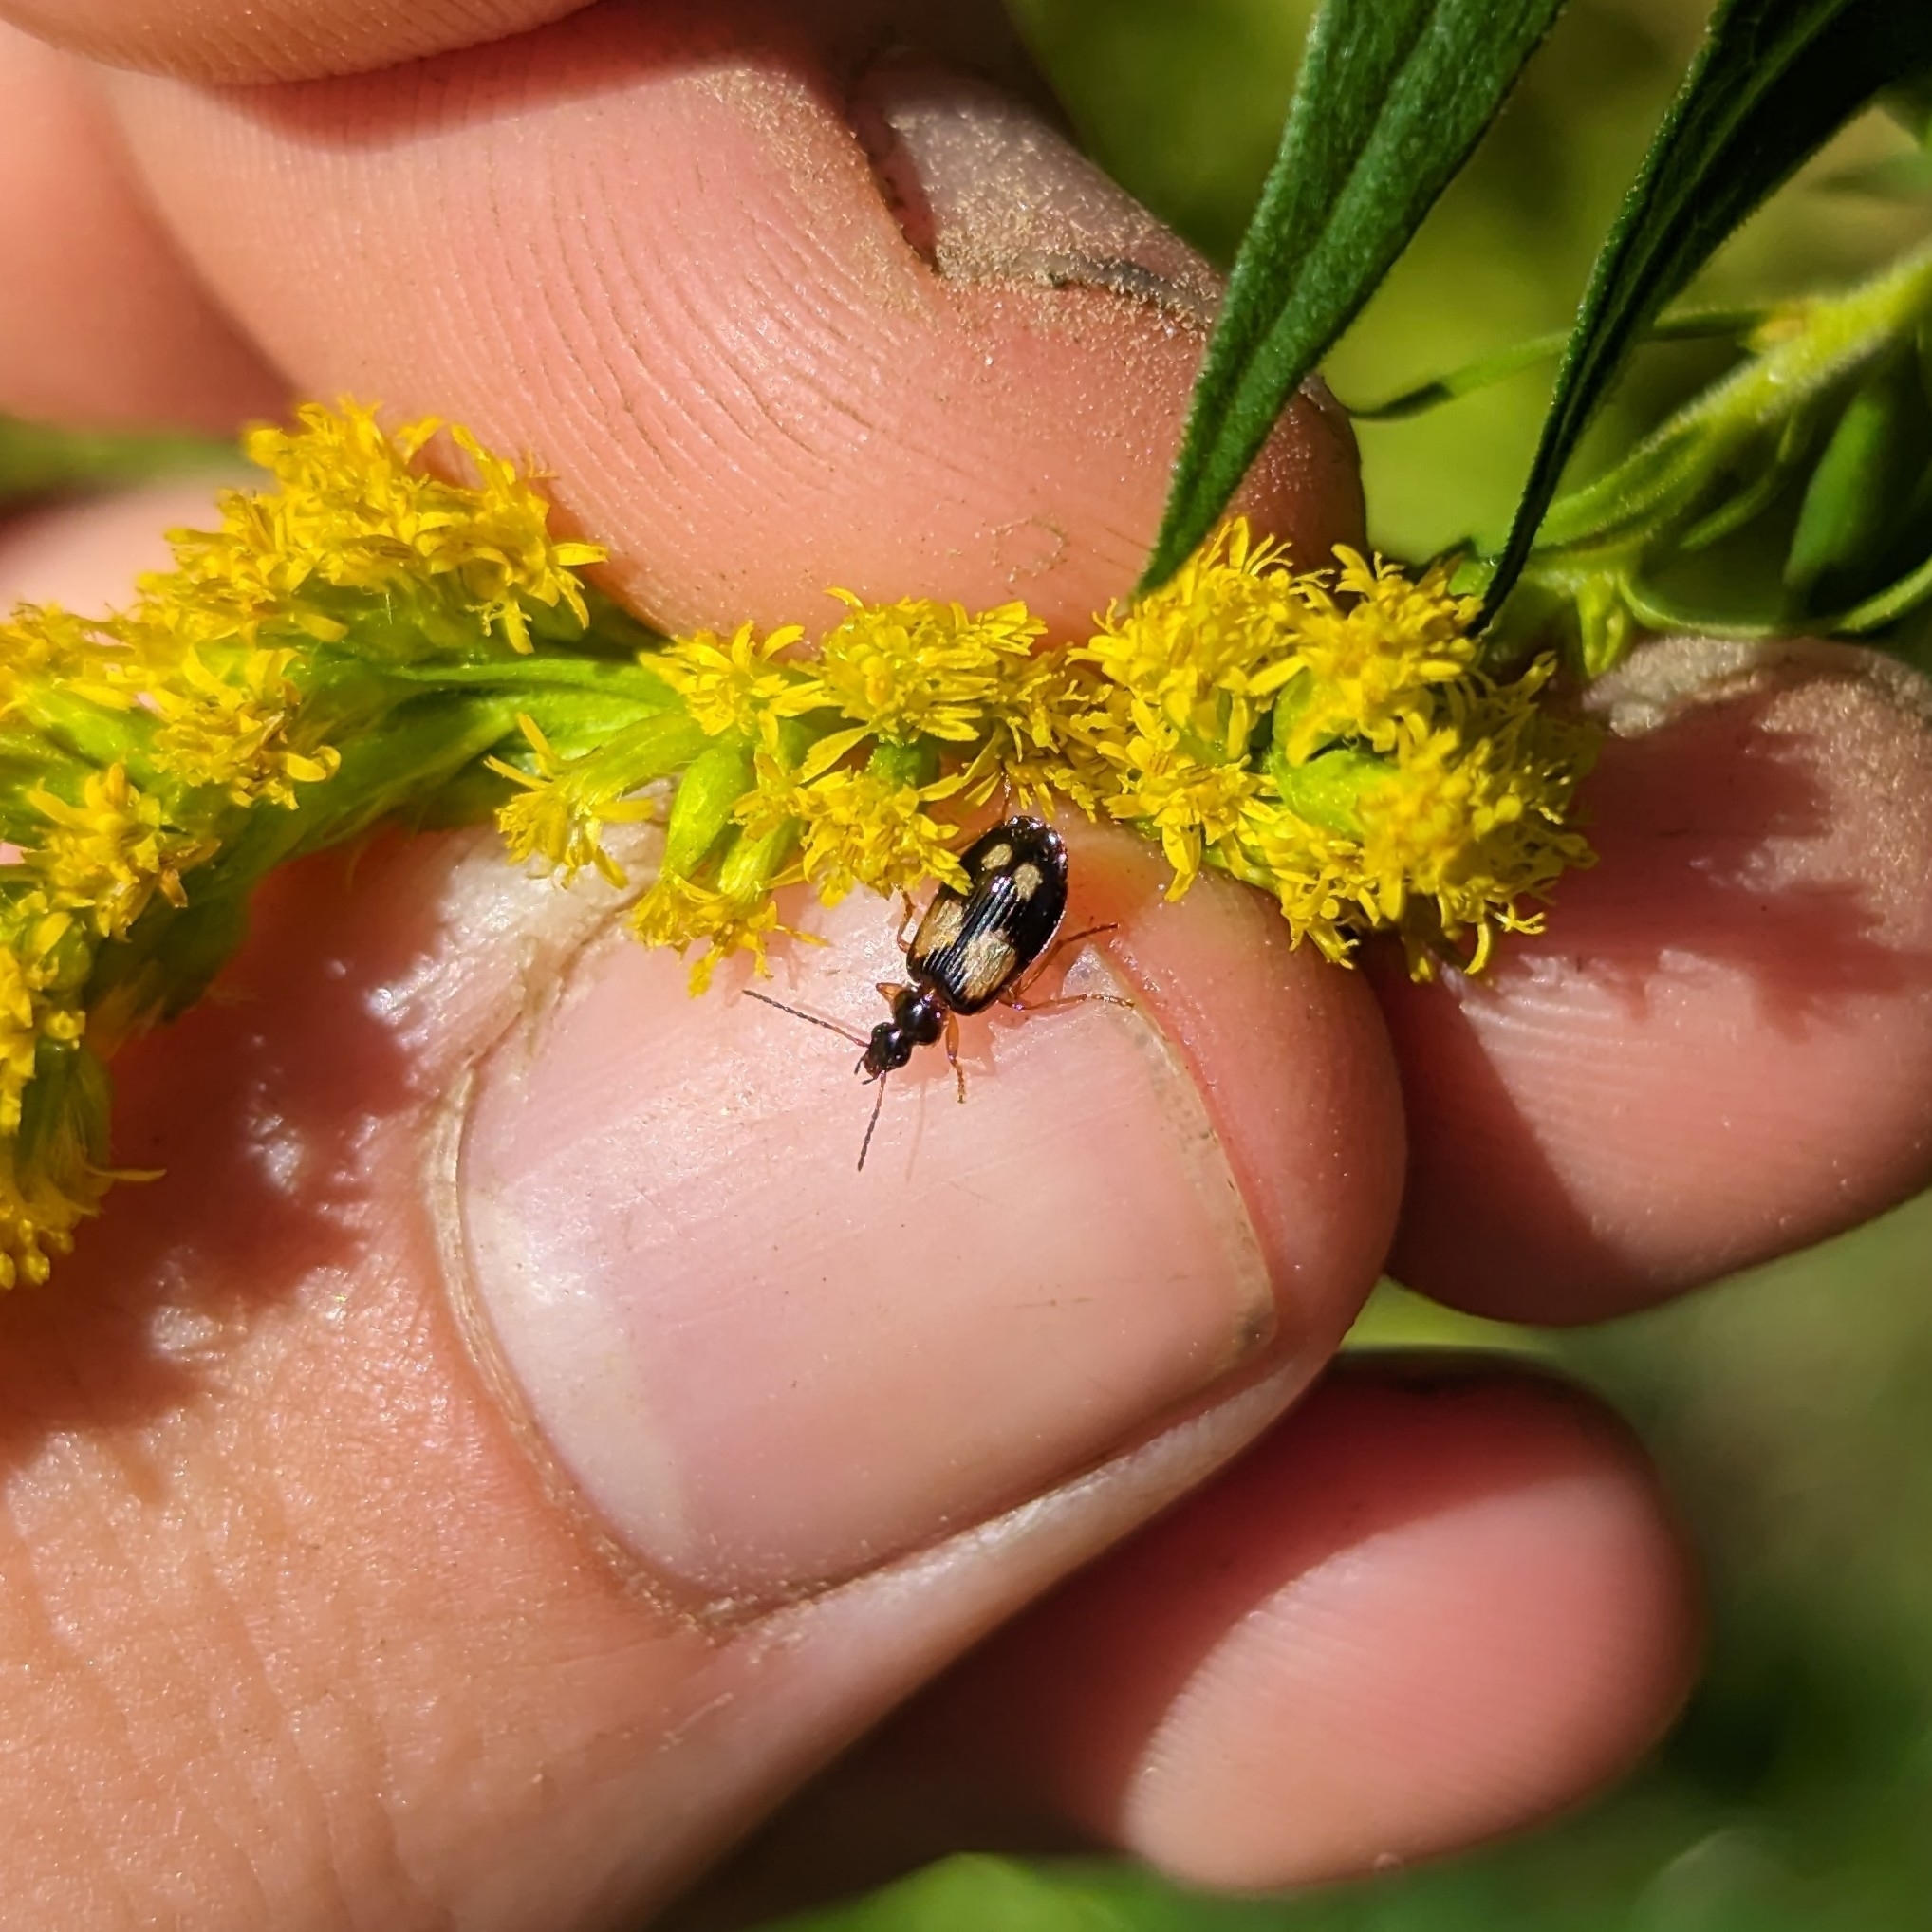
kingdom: Animalia
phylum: Arthropoda
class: Insecta
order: Coleoptera
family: Carabidae
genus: Lebia
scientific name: Lebia ornata
